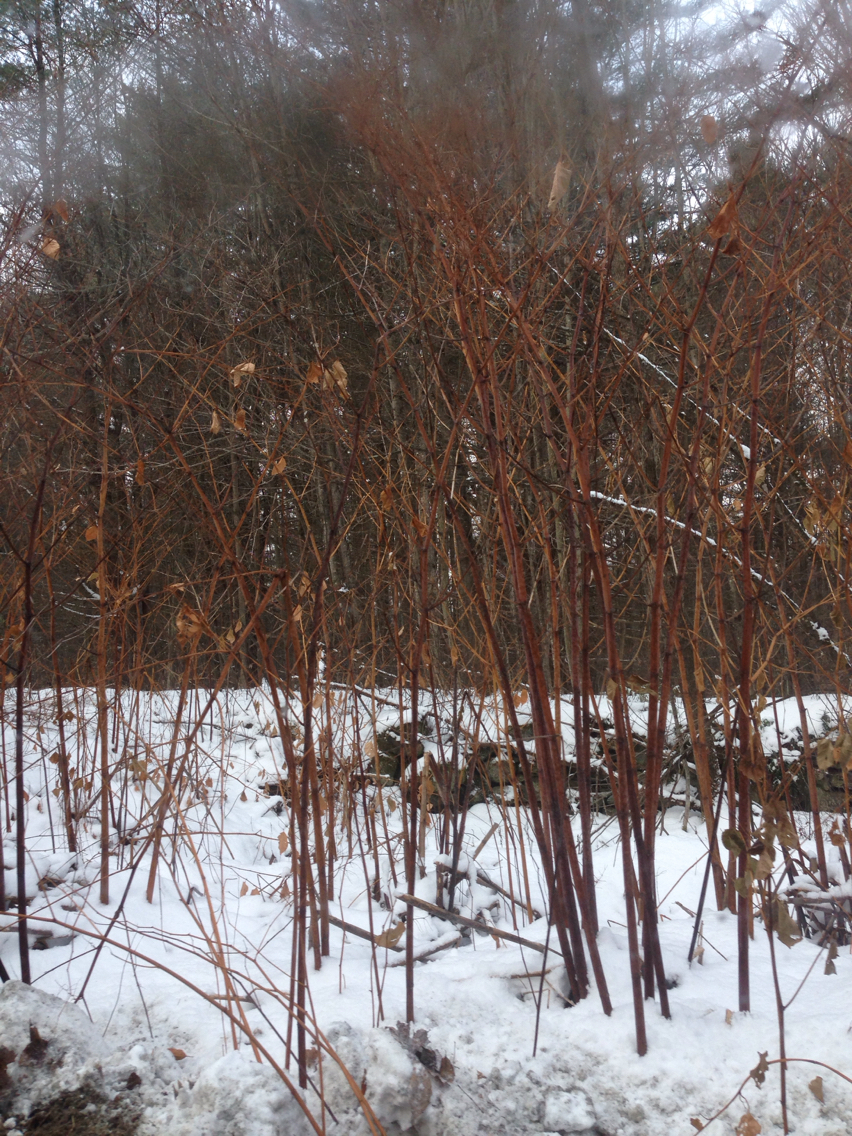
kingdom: Plantae
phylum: Tracheophyta
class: Magnoliopsida
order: Caryophyllales
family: Polygonaceae
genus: Reynoutria
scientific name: Reynoutria japonica
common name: Japanese knotweed
